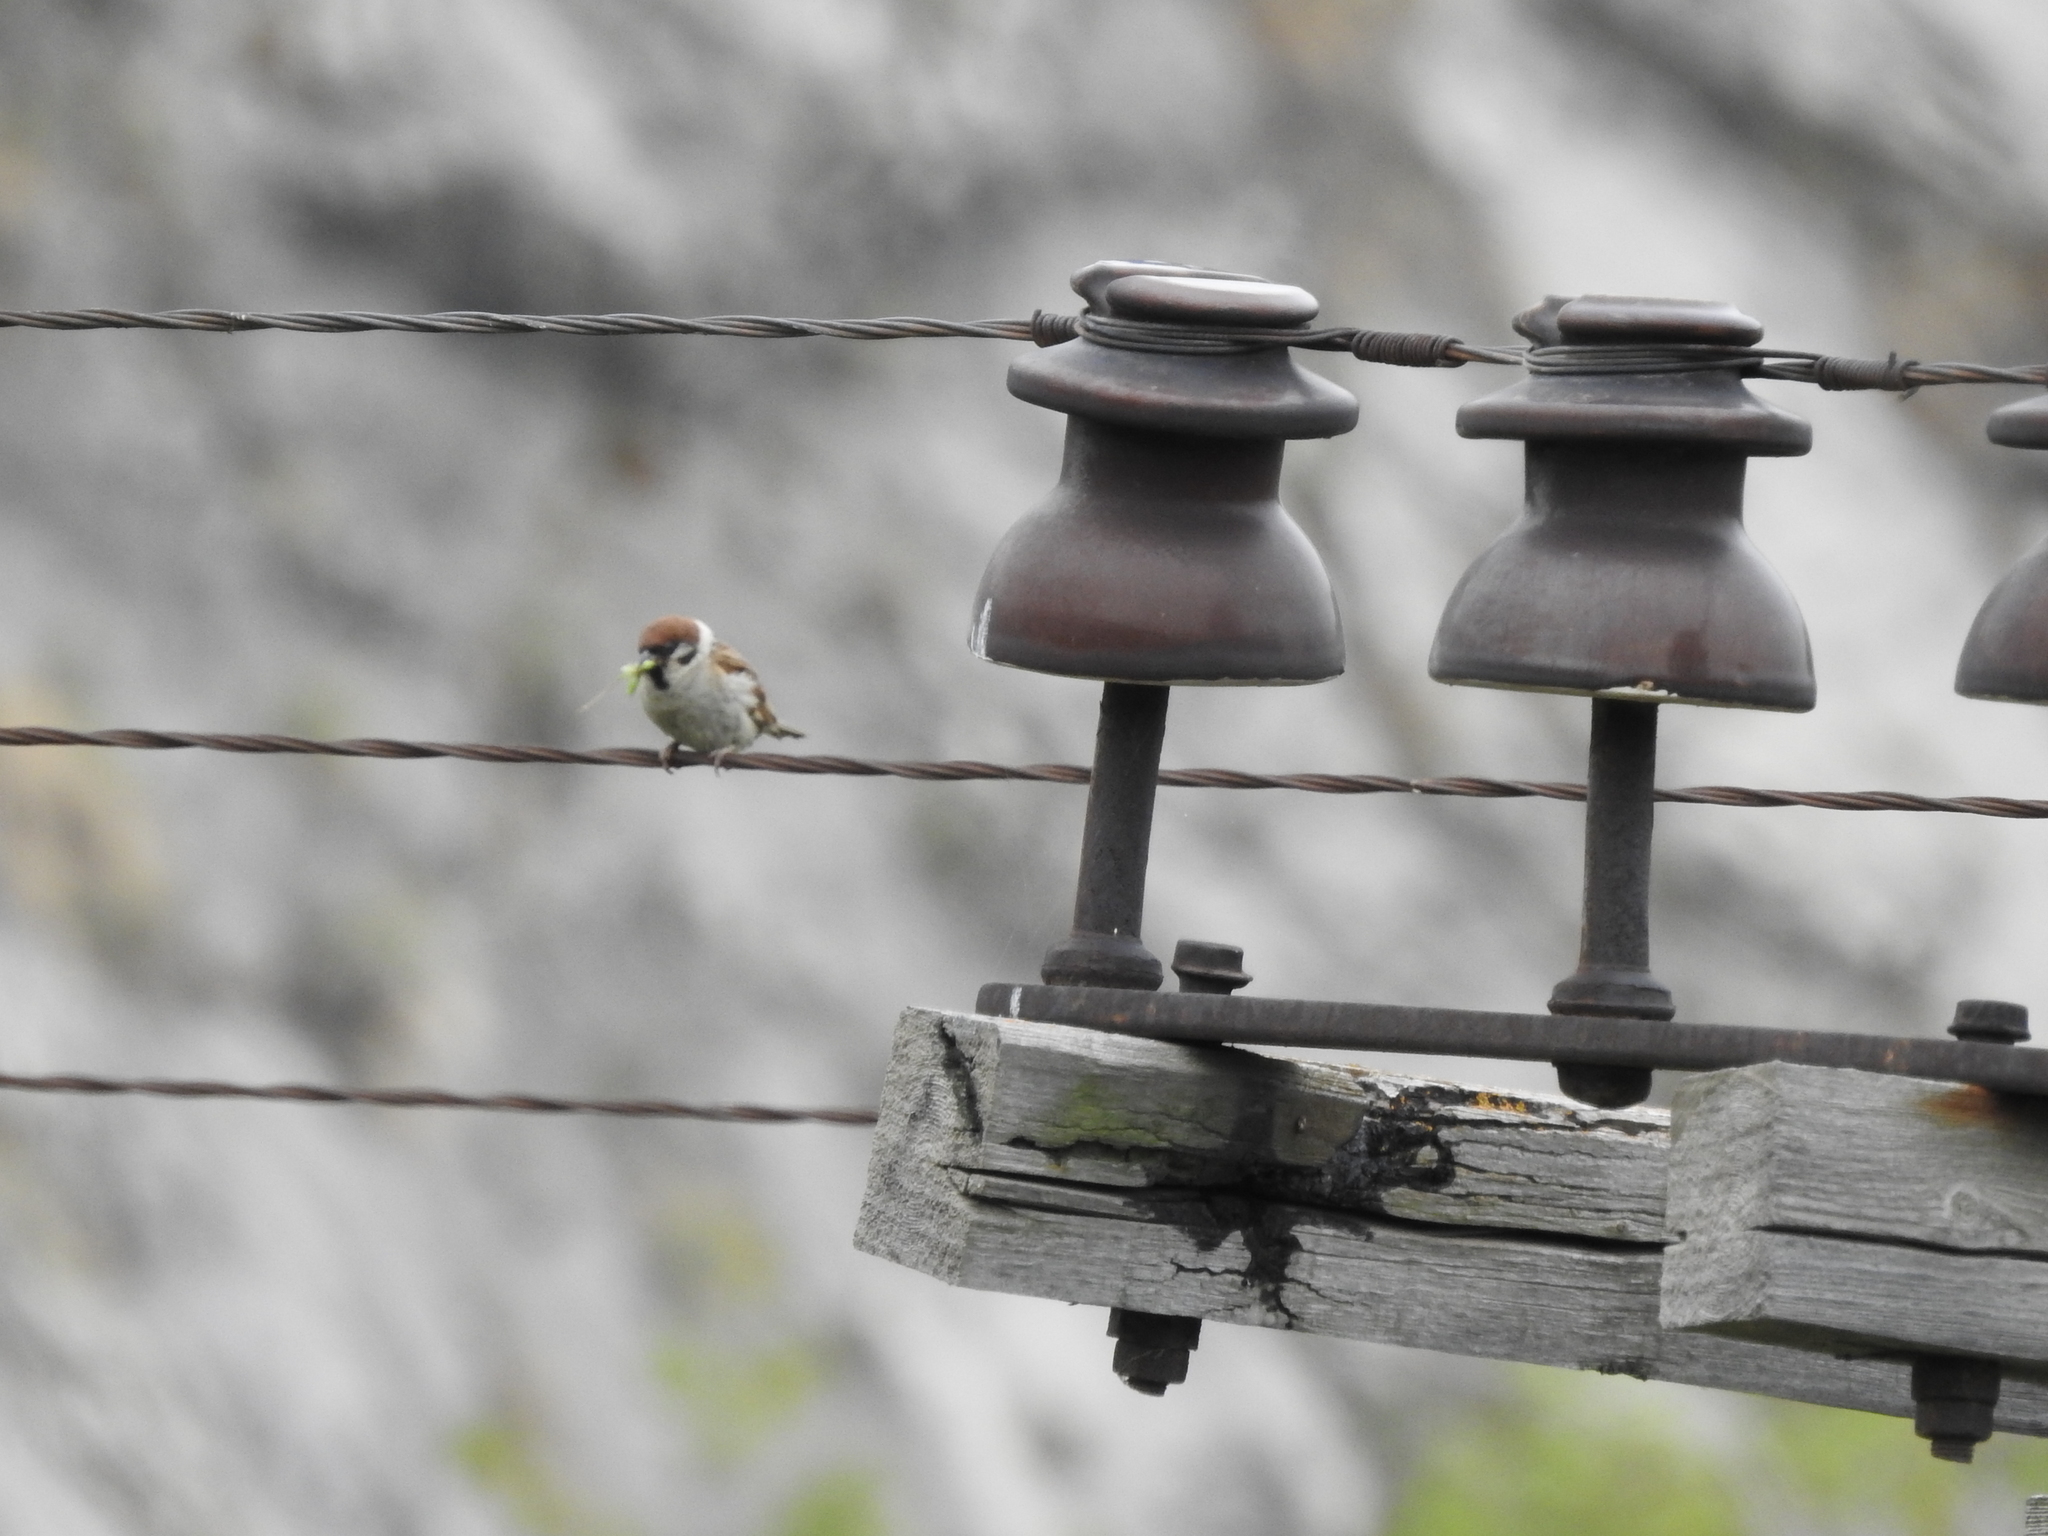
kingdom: Animalia
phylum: Chordata
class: Aves
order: Passeriformes
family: Passeridae
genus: Passer
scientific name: Passer montanus
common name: Eurasian tree sparrow
